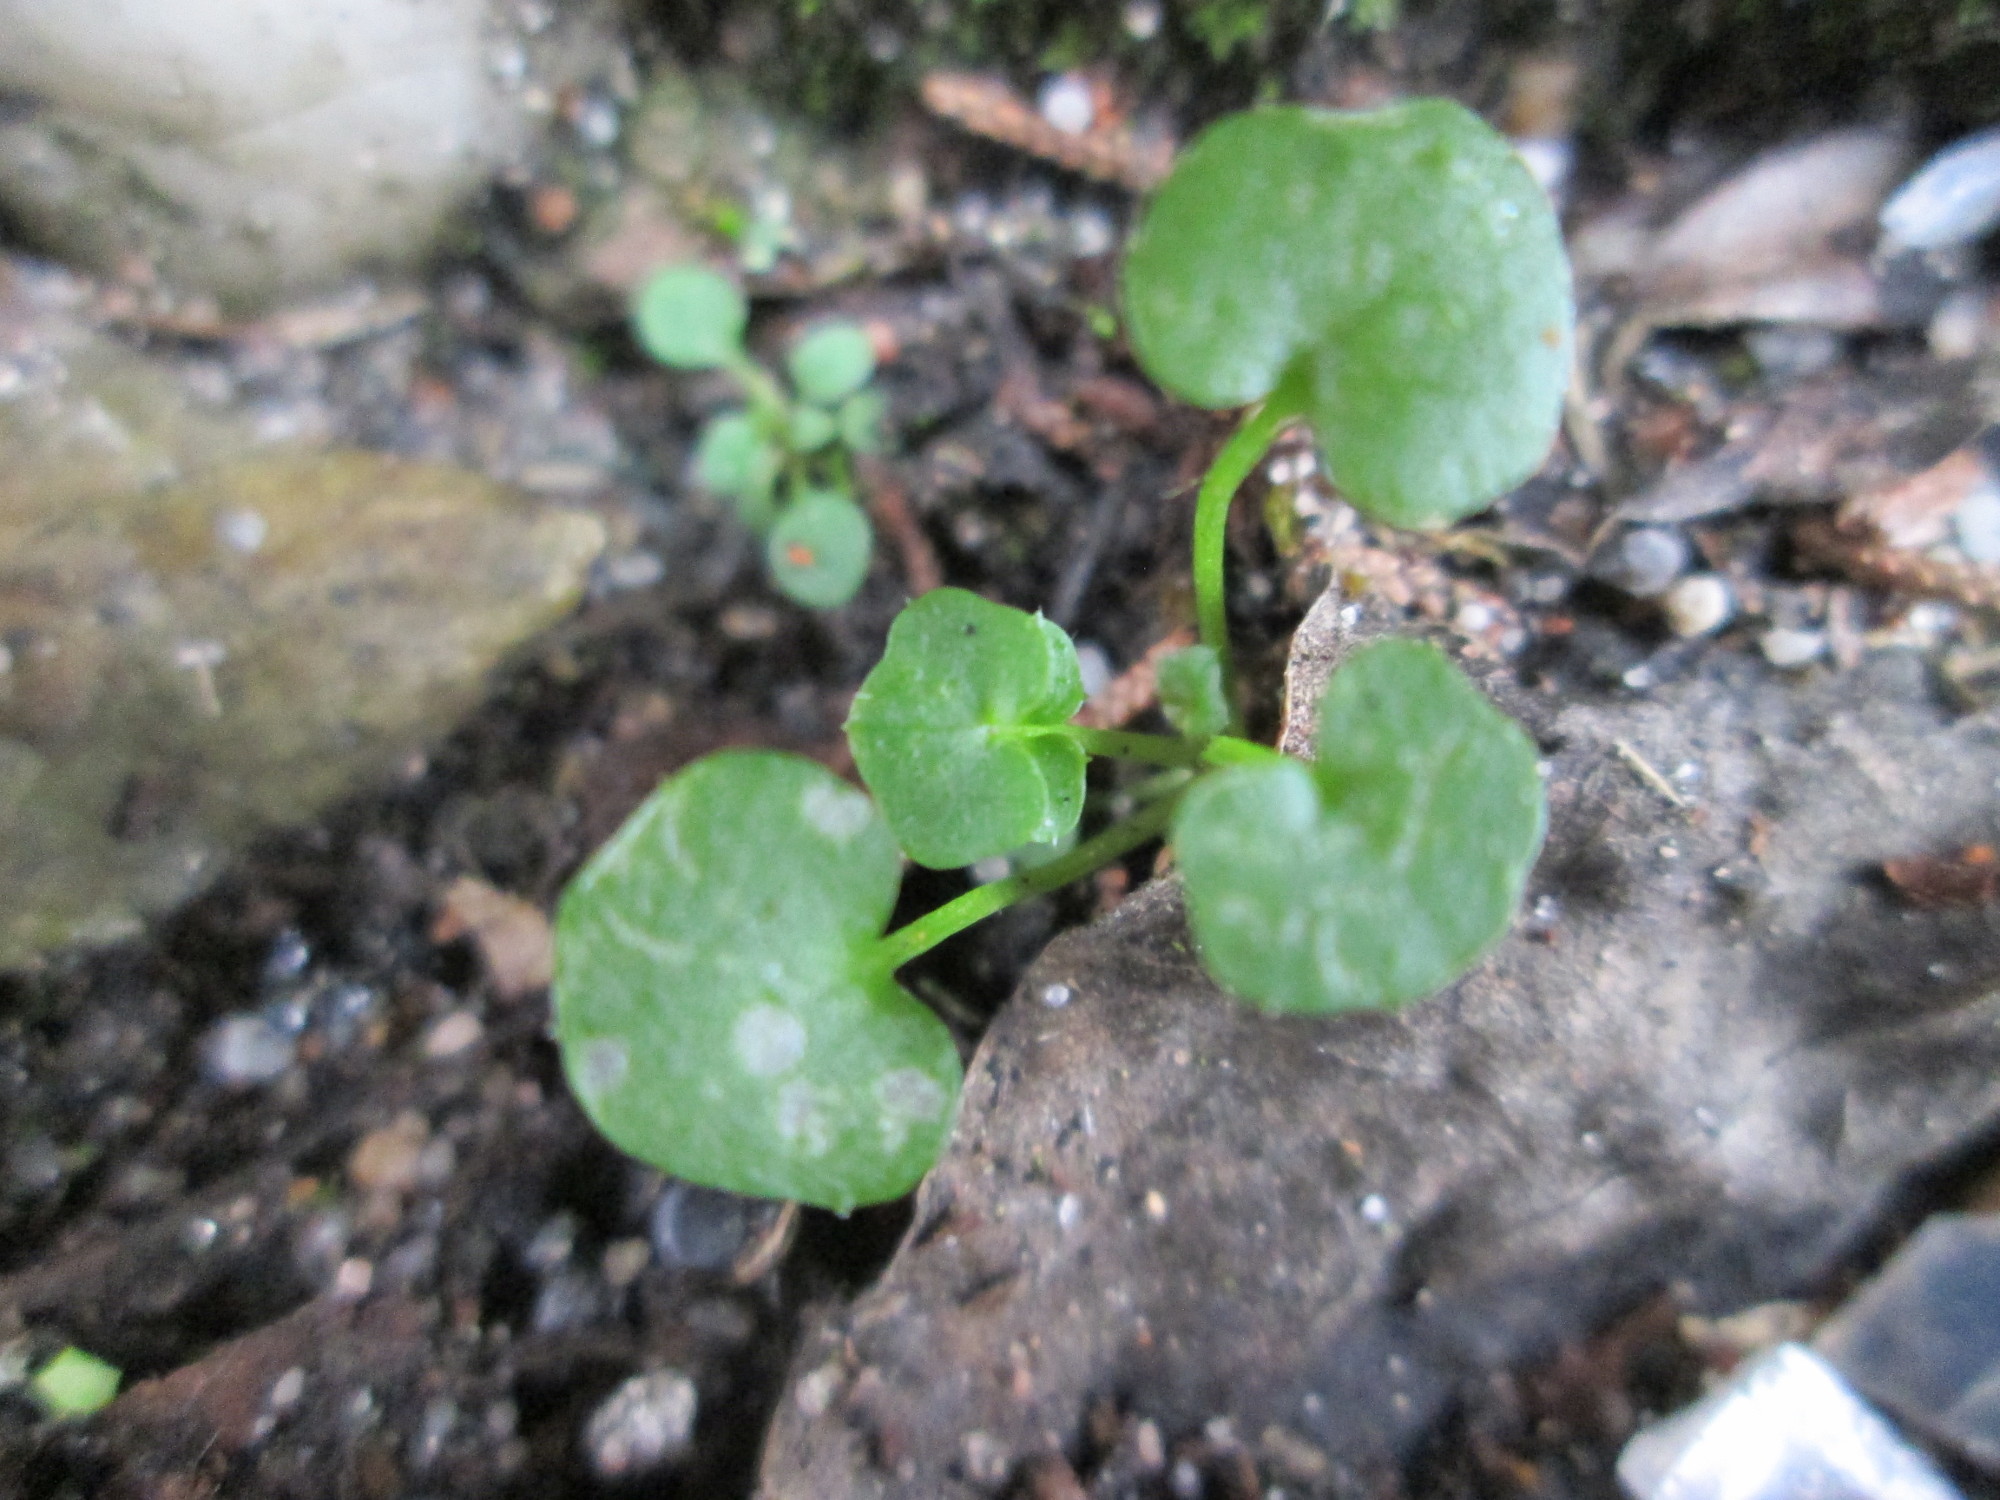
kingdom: Plantae
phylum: Tracheophyta
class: Magnoliopsida
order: Brassicales
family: Brassicaceae
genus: Cardamine
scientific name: Cardamine hirsuta
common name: Hairy bittercress
